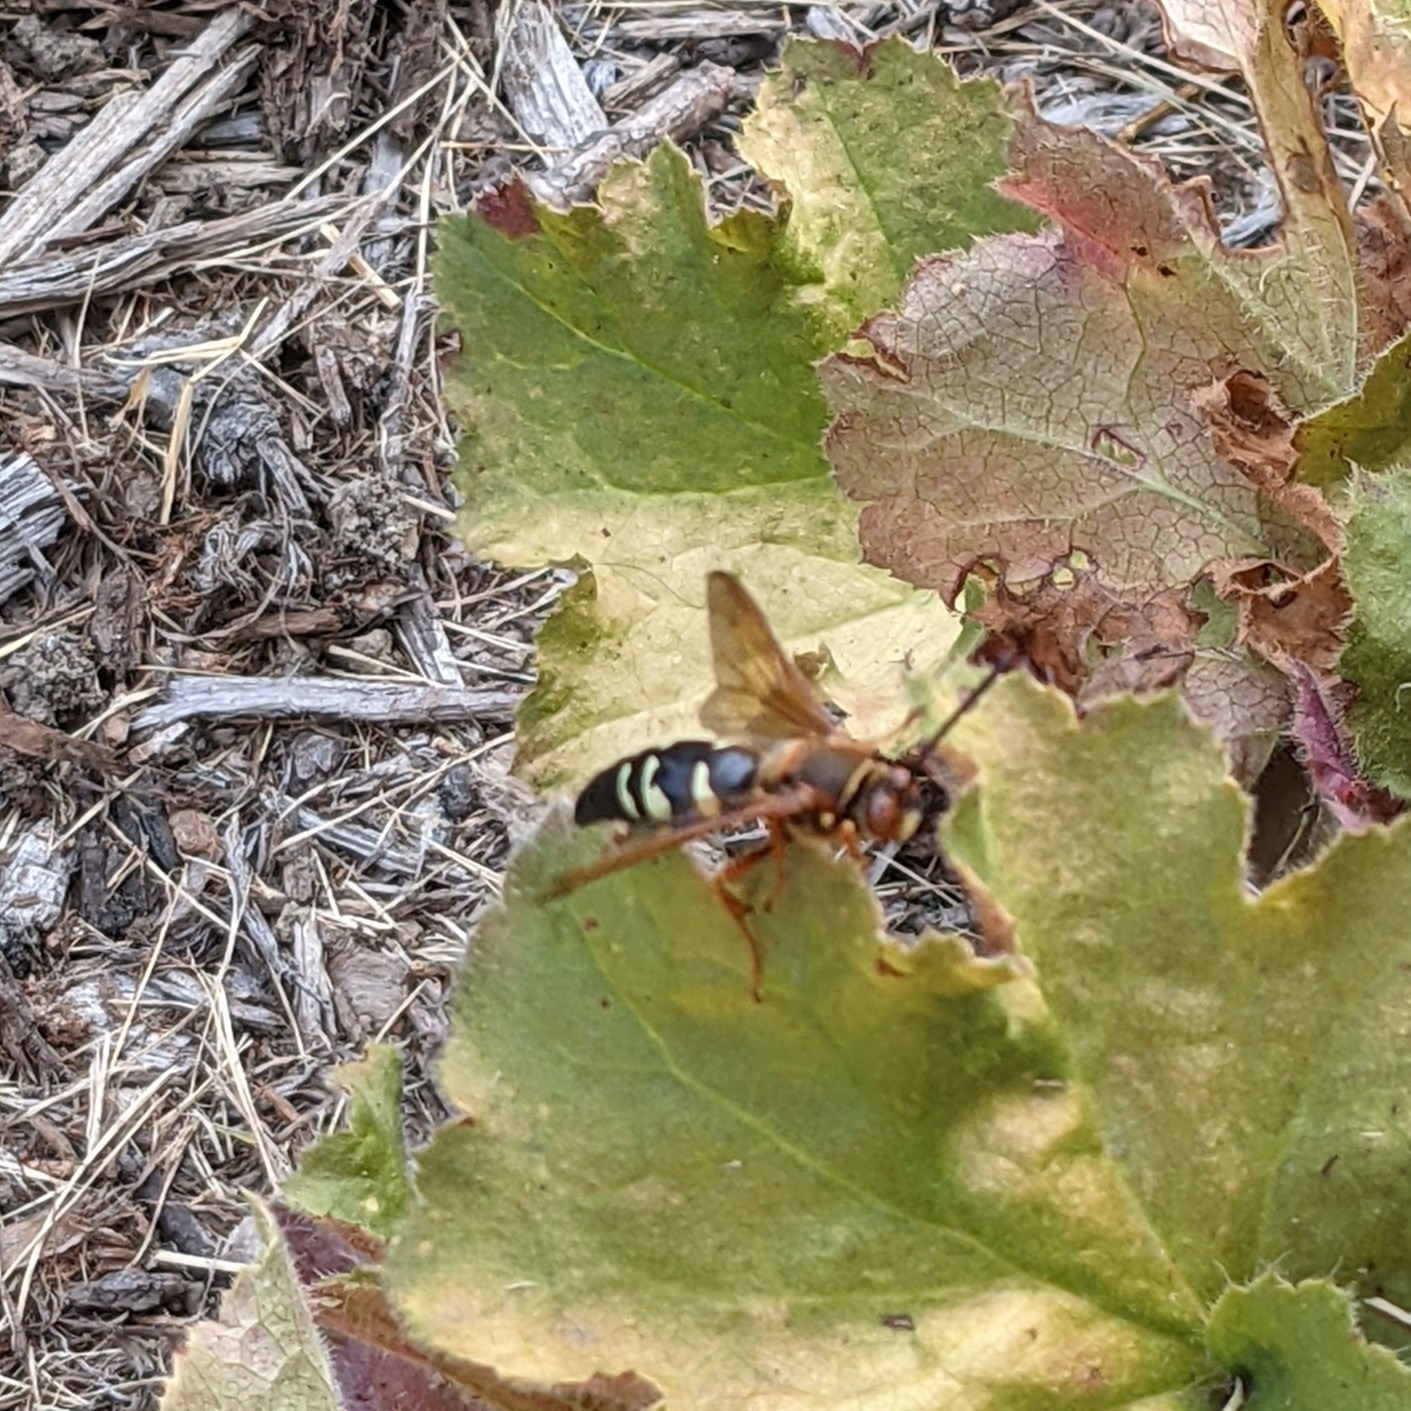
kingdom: Animalia
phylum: Arthropoda
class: Insecta
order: Hymenoptera
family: Crabronidae
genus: Sphecius
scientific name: Sphecius speciosus
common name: Cicada killer
